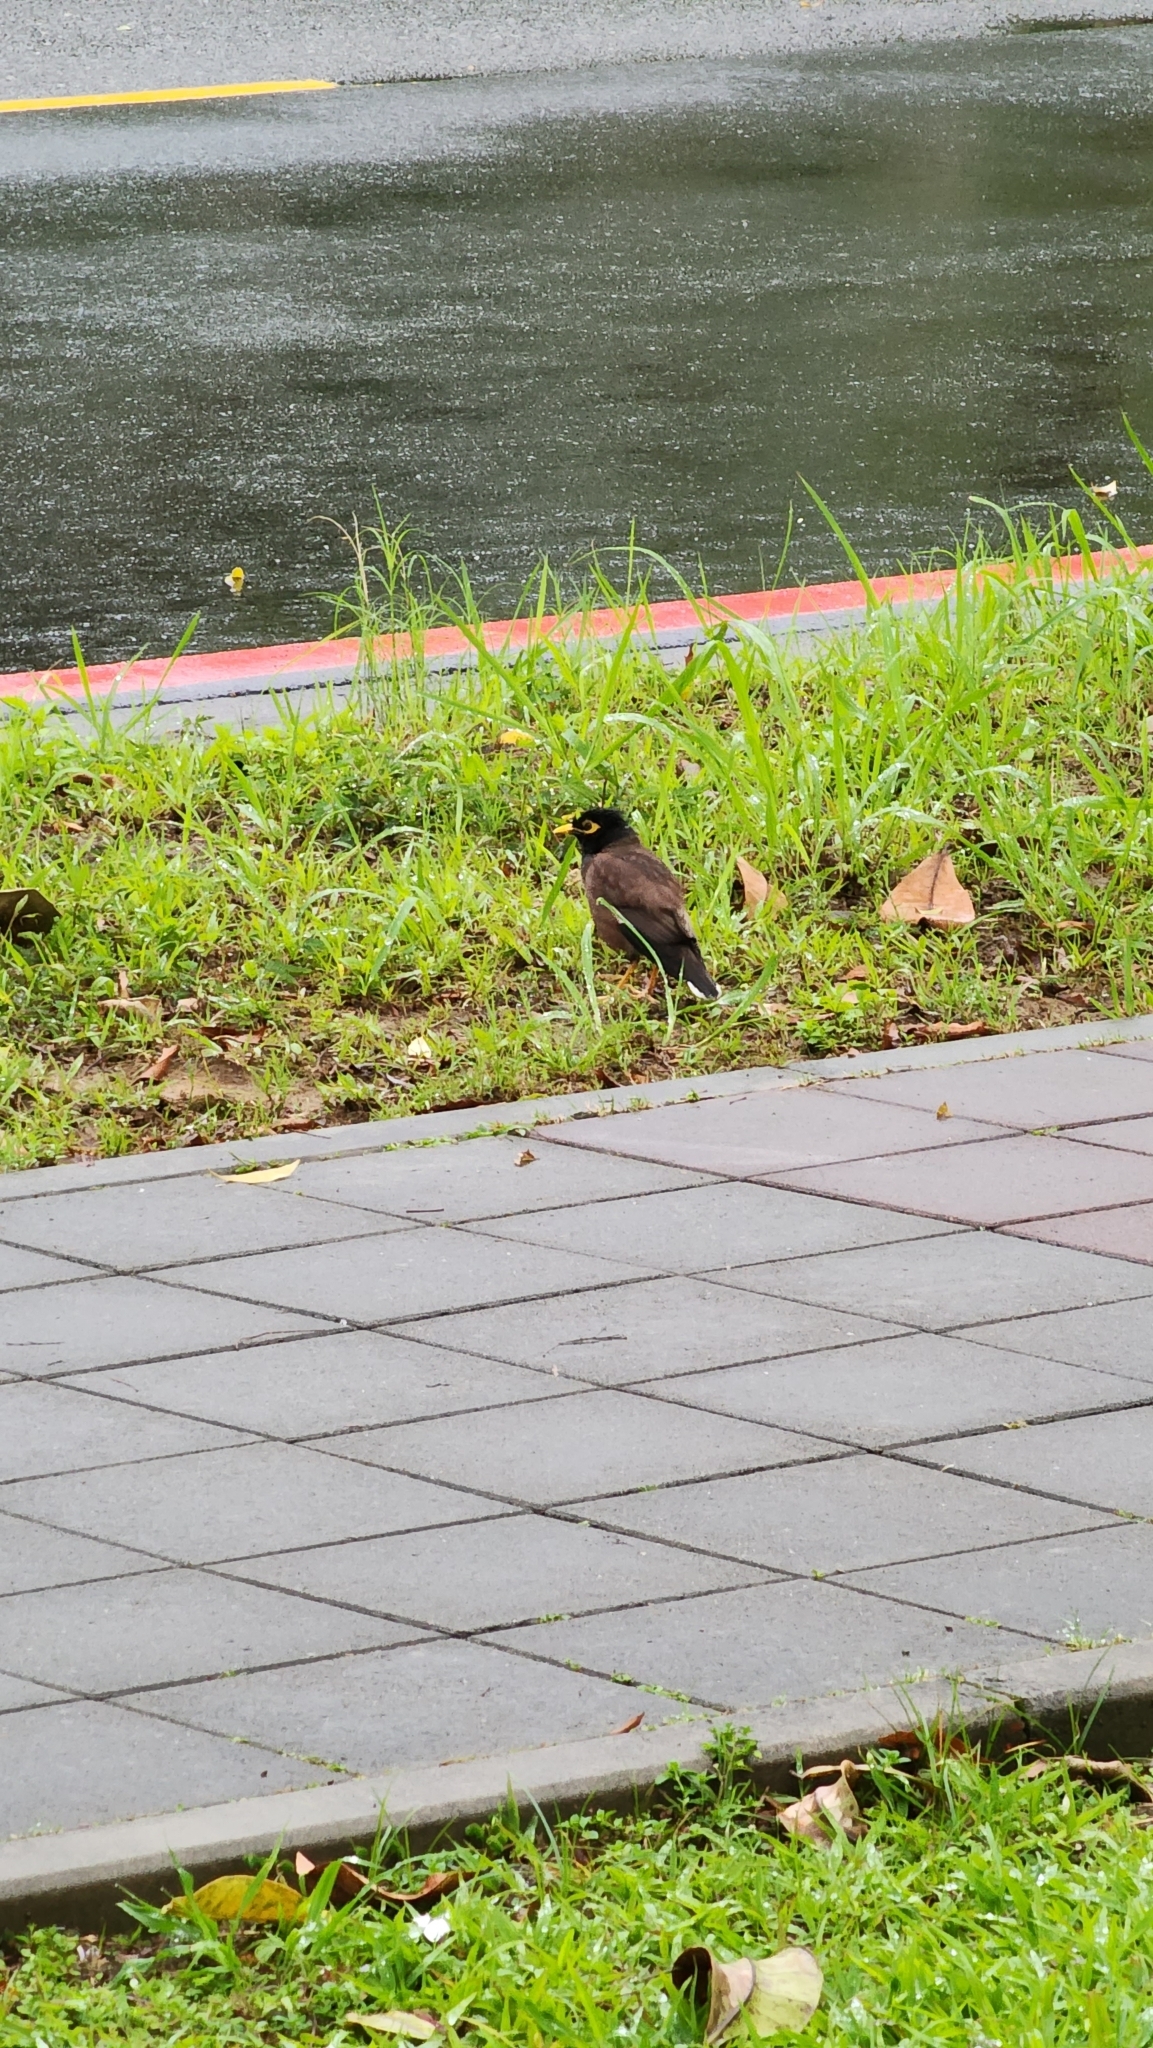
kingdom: Animalia
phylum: Chordata
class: Aves
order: Passeriformes
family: Sturnidae
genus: Acridotheres
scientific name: Acridotheres tristis
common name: Common myna
